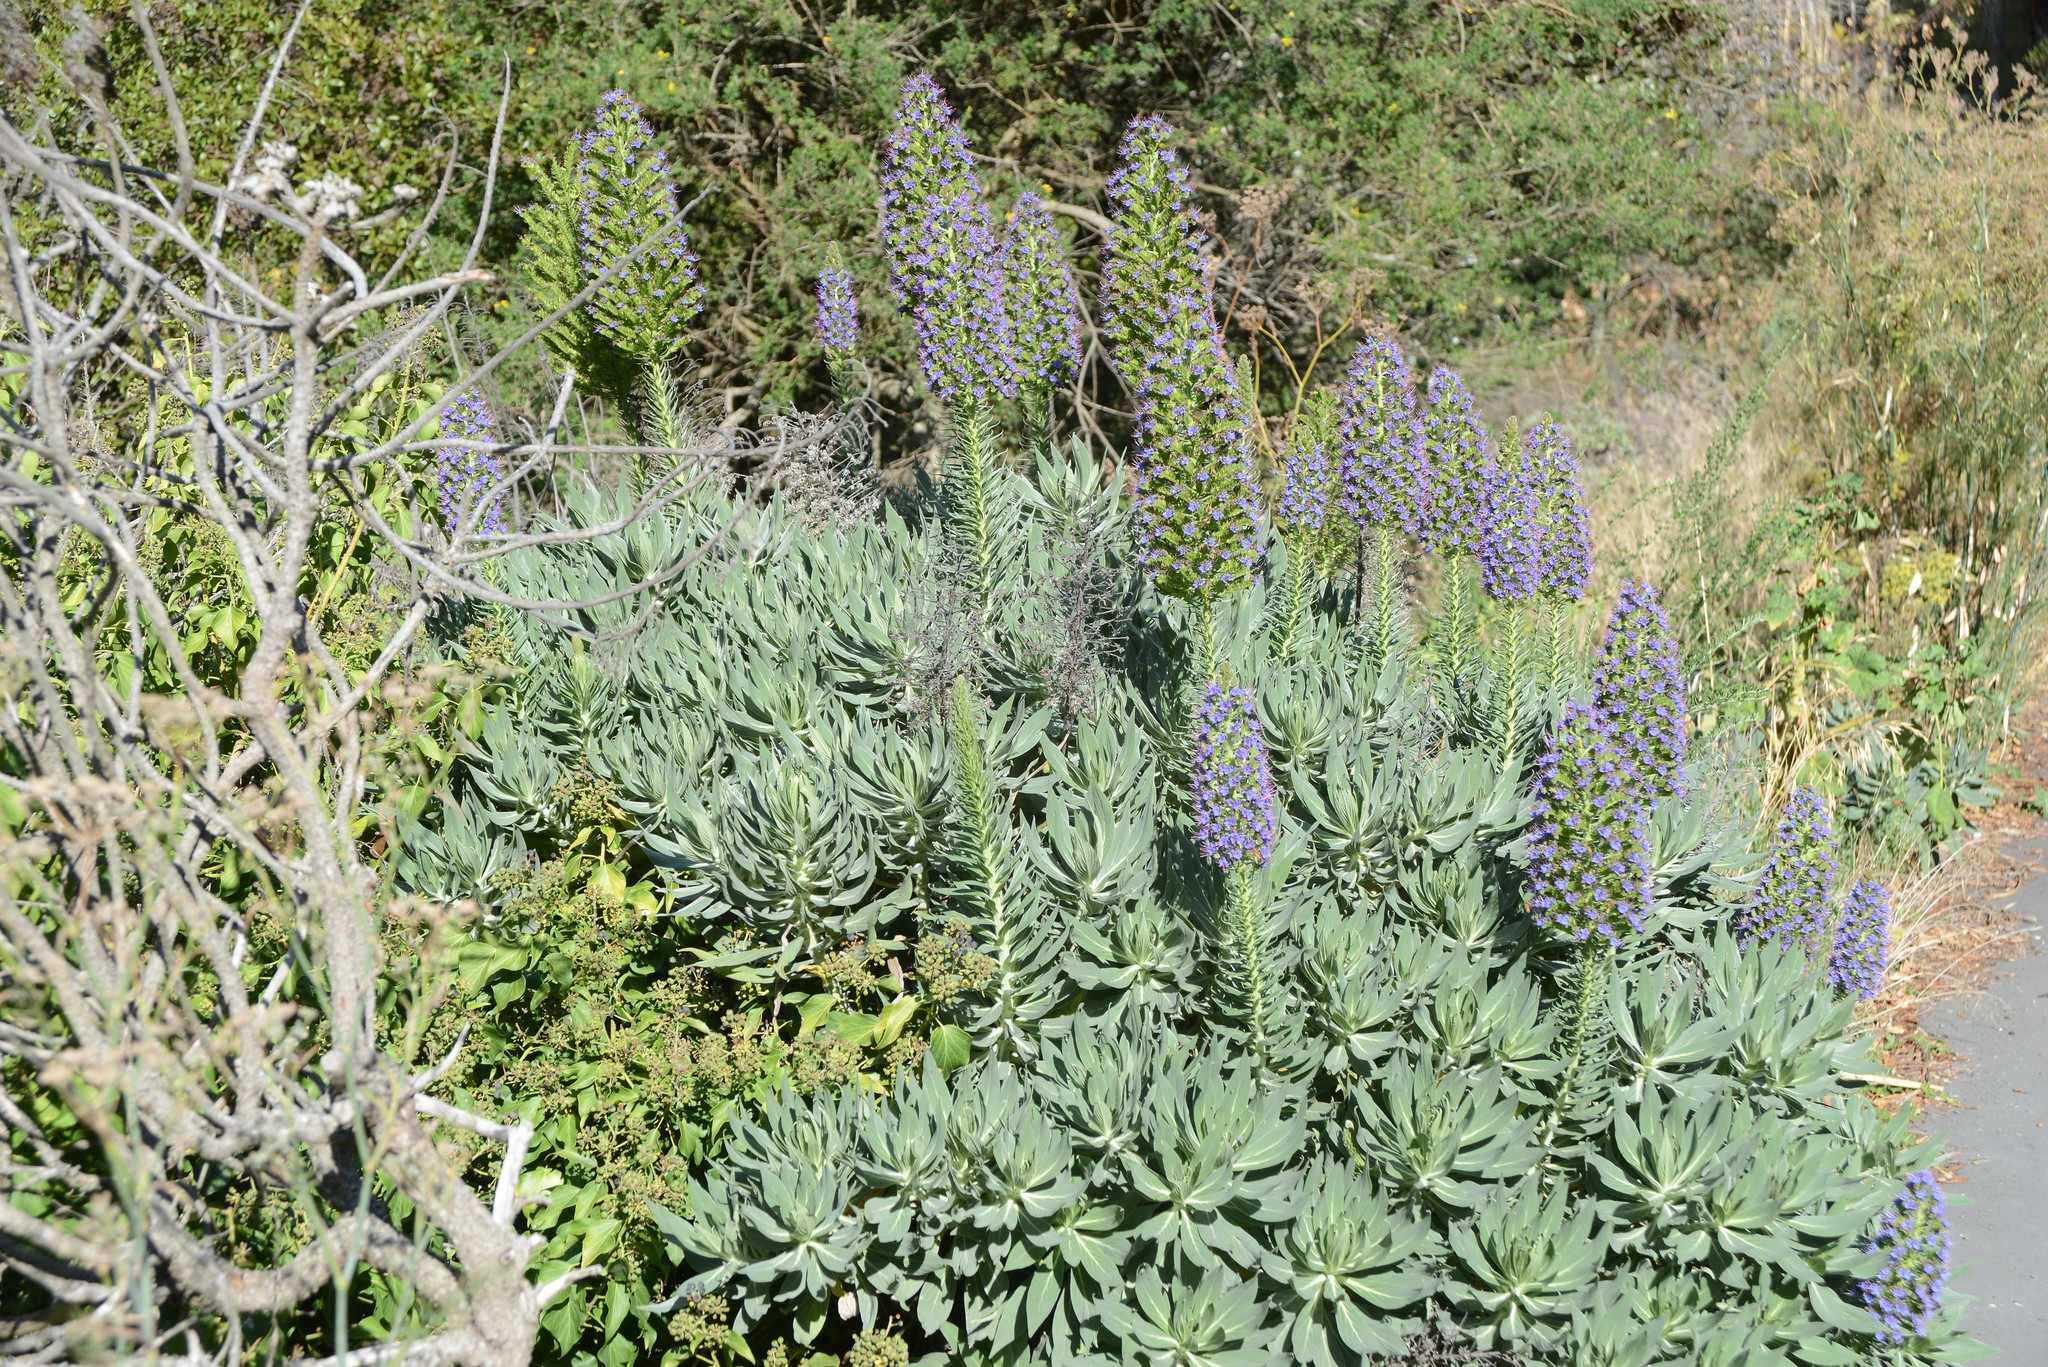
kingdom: Plantae
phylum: Tracheophyta
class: Magnoliopsida
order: Boraginales
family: Boraginaceae
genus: Echium
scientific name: Echium candicans
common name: Pride of madeira
